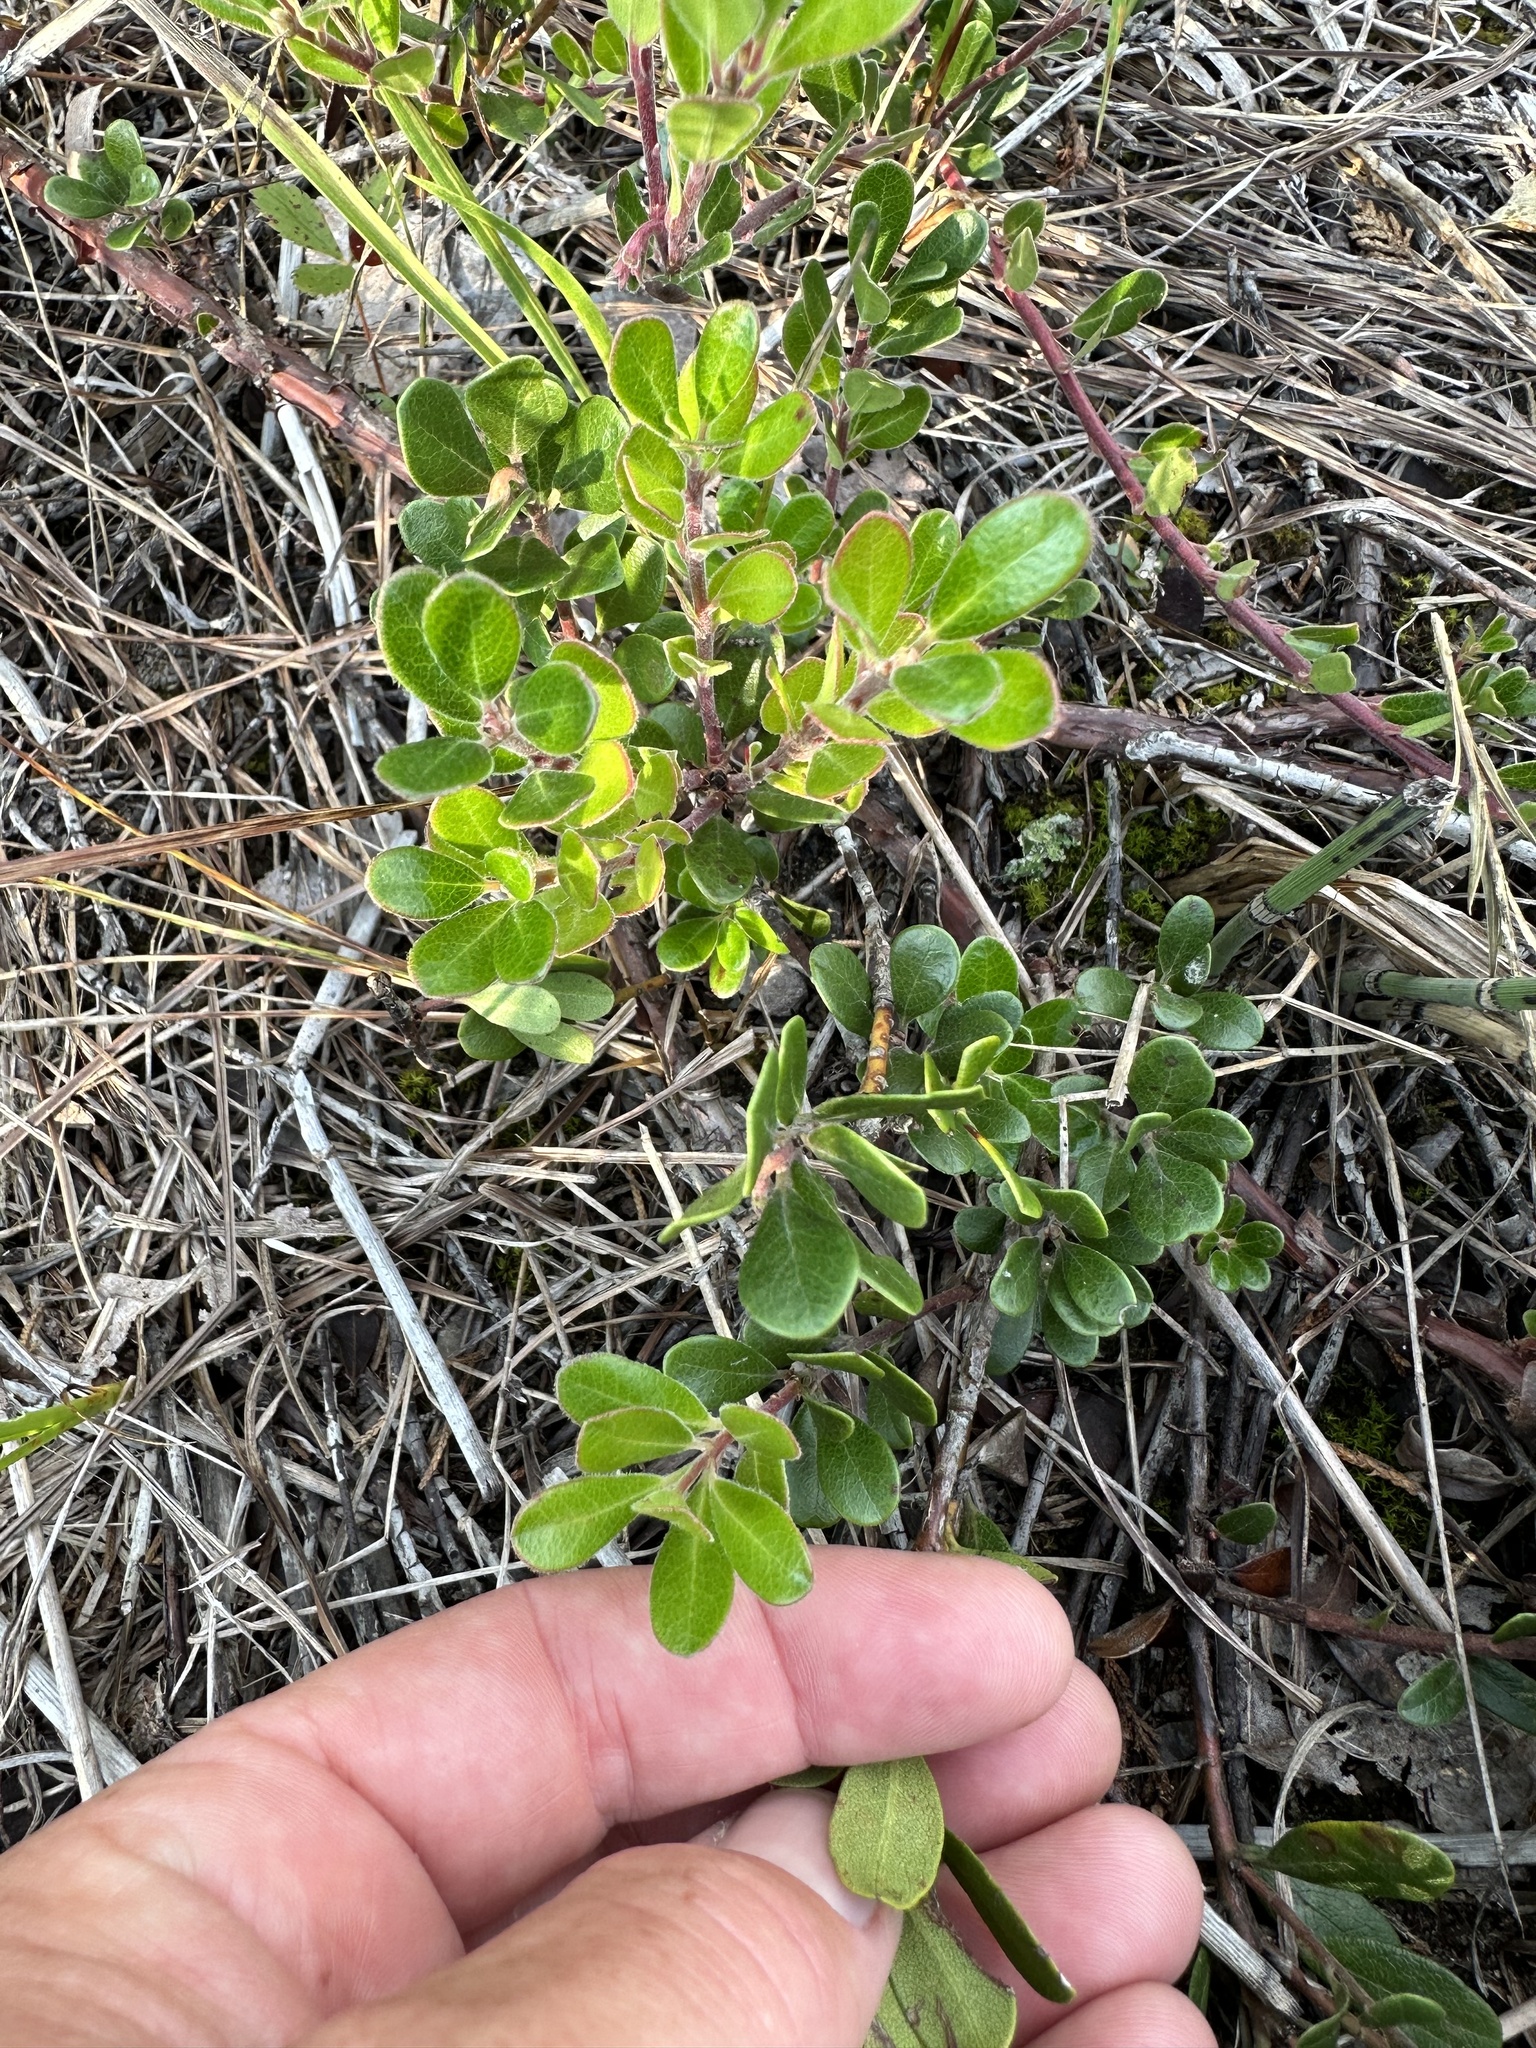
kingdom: Plantae
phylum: Tracheophyta
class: Magnoliopsida
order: Ericales
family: Ericaceae
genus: Arctostaphylos
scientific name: Arctostaphylos uva-ursi
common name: Bearberry
